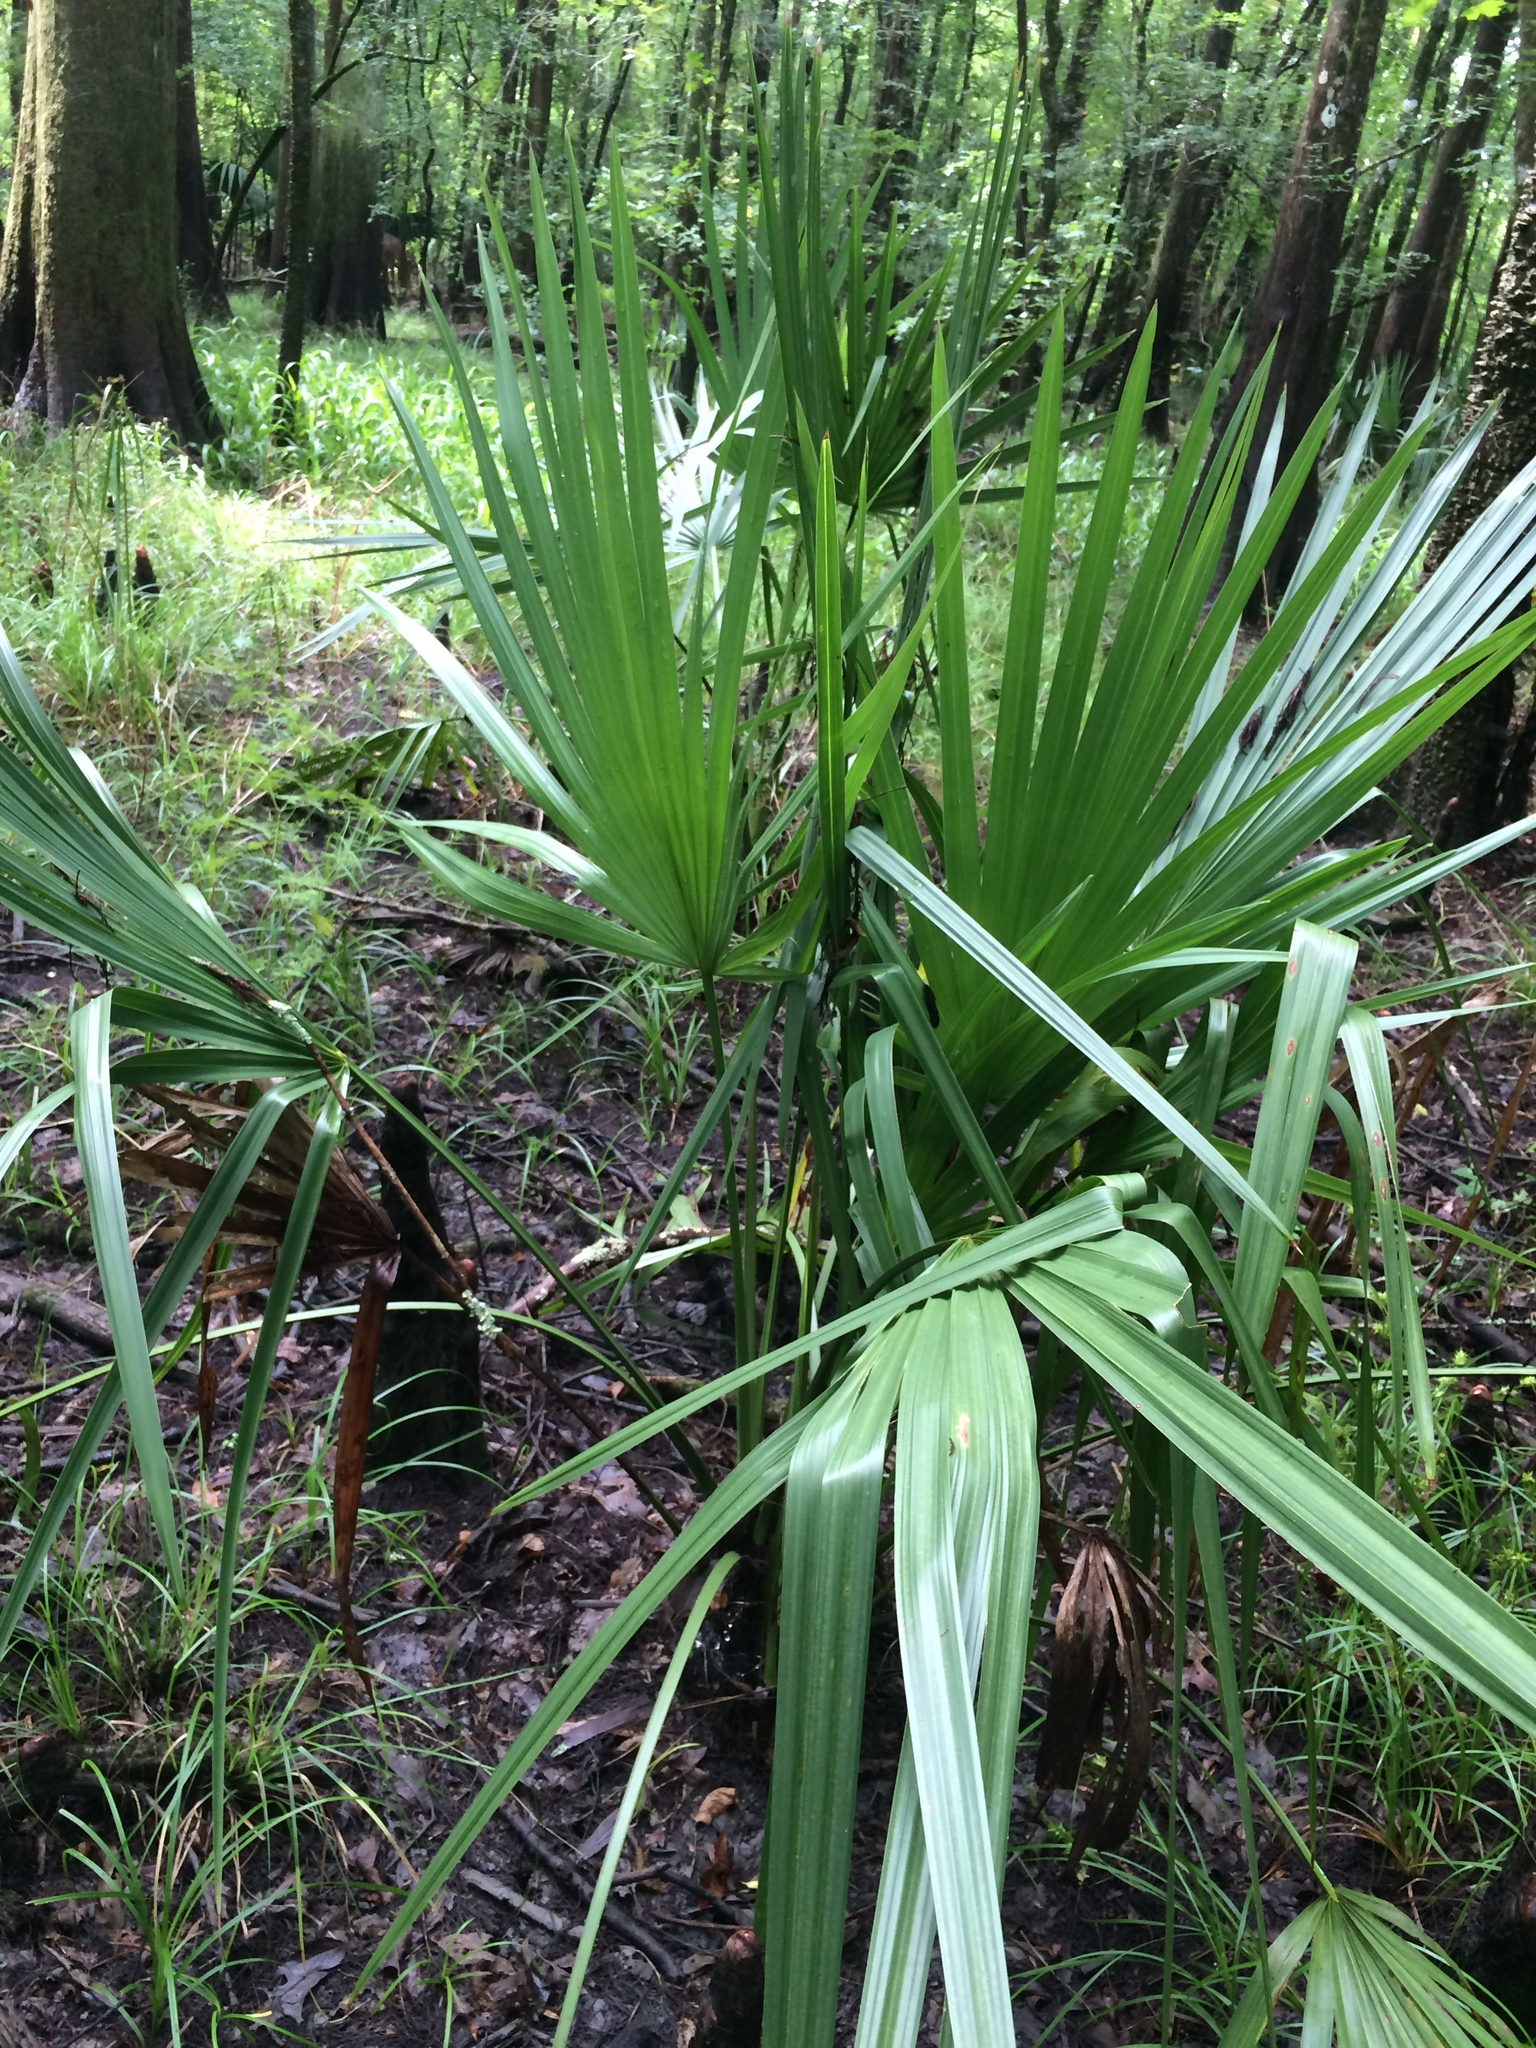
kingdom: Plantae
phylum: Tracheophyta
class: Liliopsida
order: Arecales
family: Arecaceae
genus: Sabal
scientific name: Sabal minor
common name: Dwarf palmetto
